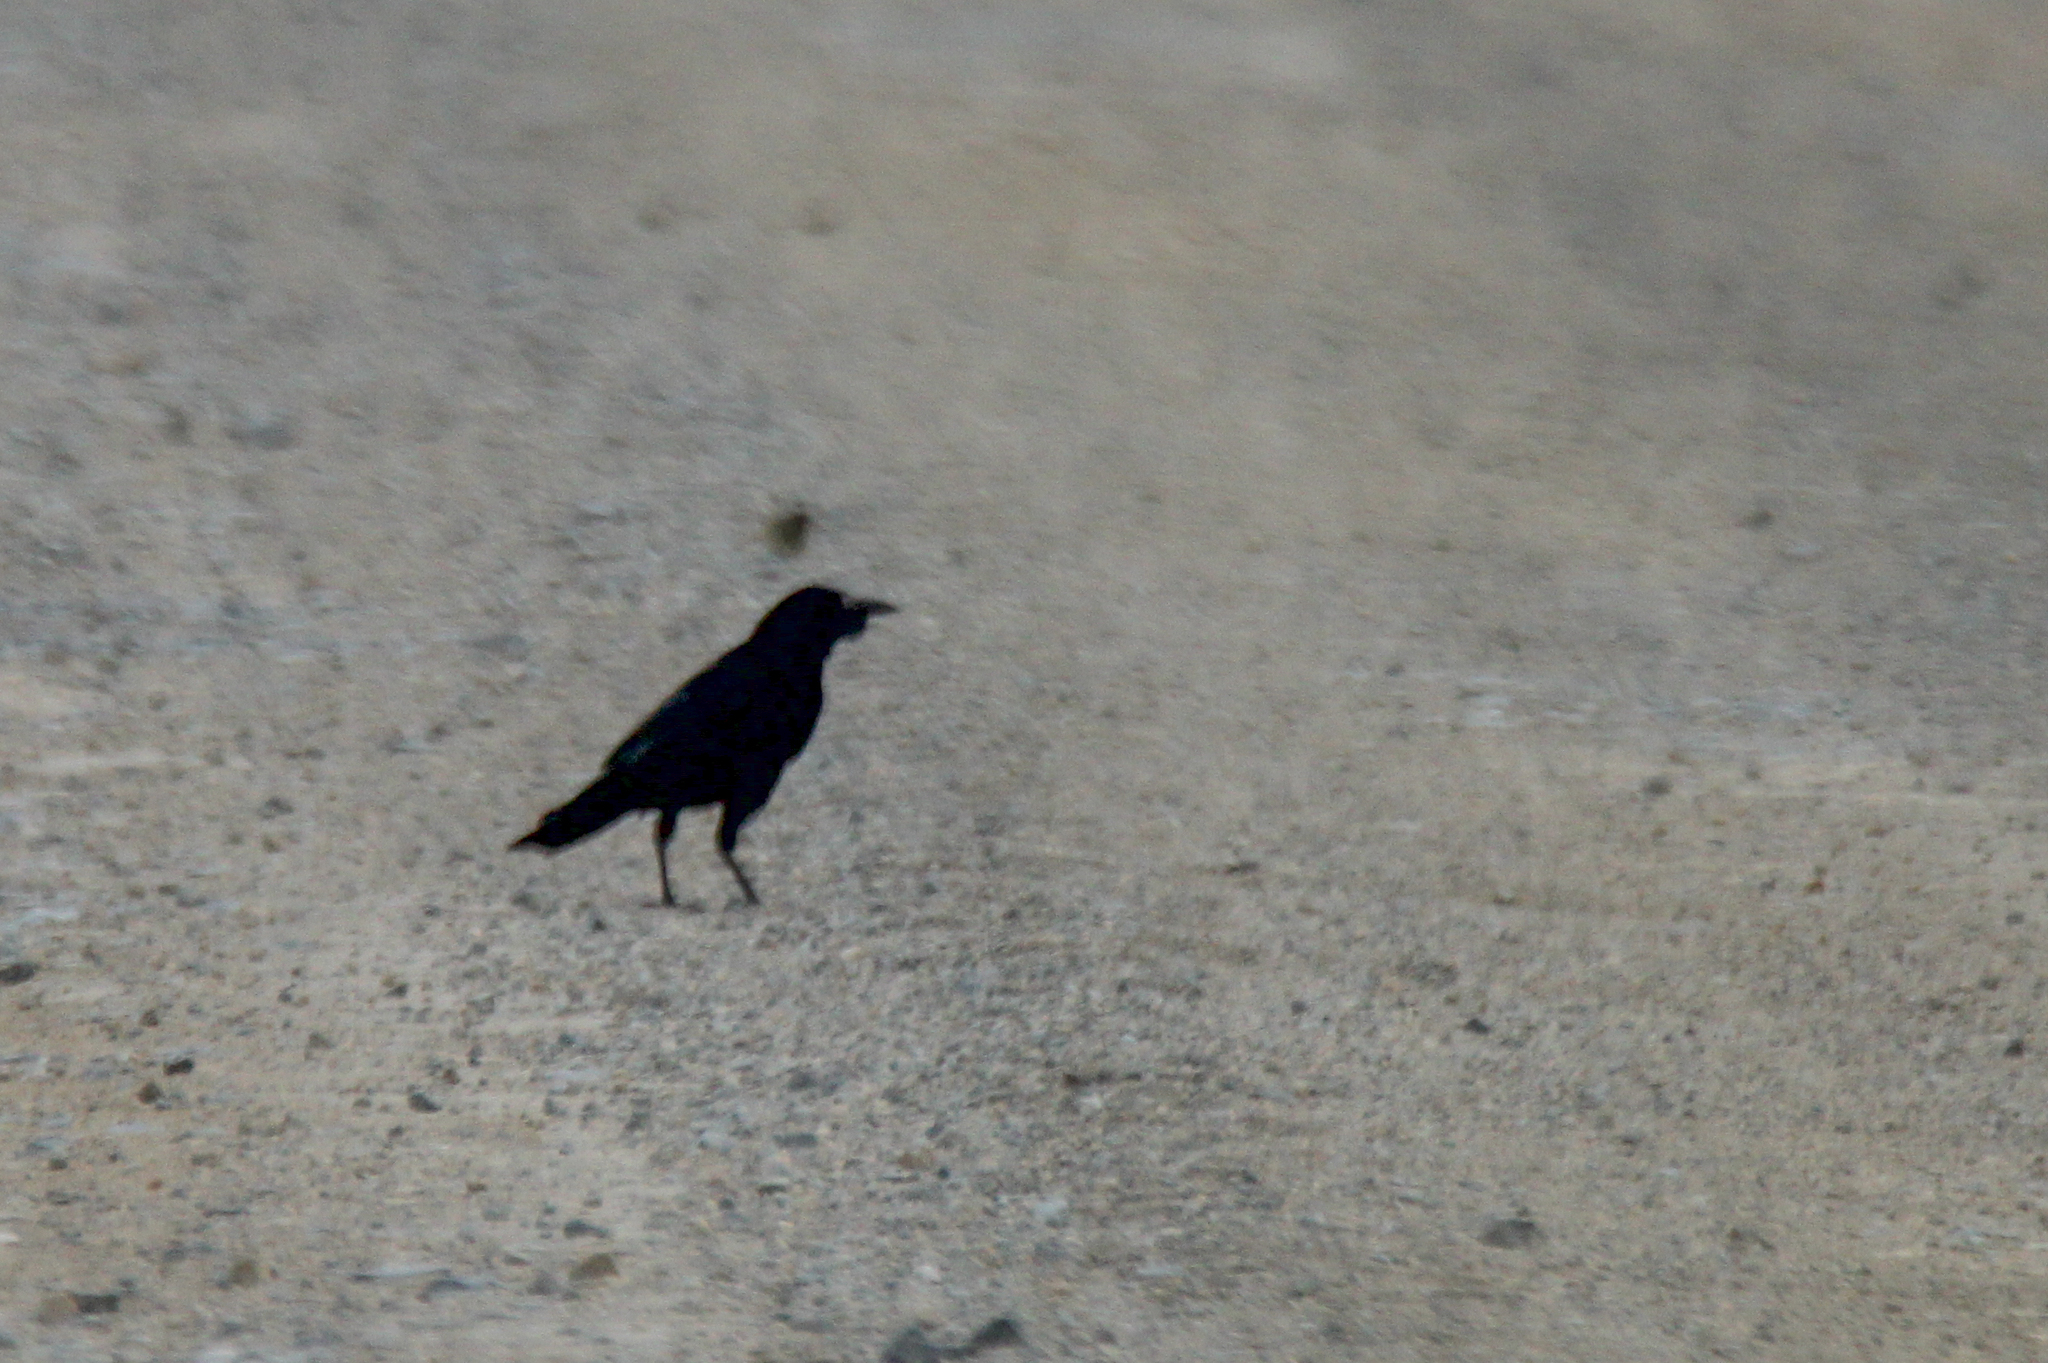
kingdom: Animalia
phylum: Chordata
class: Aves
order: Passeriformes
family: Corvidae
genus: Corvus
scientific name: Corvus frugilegus
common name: Rook
